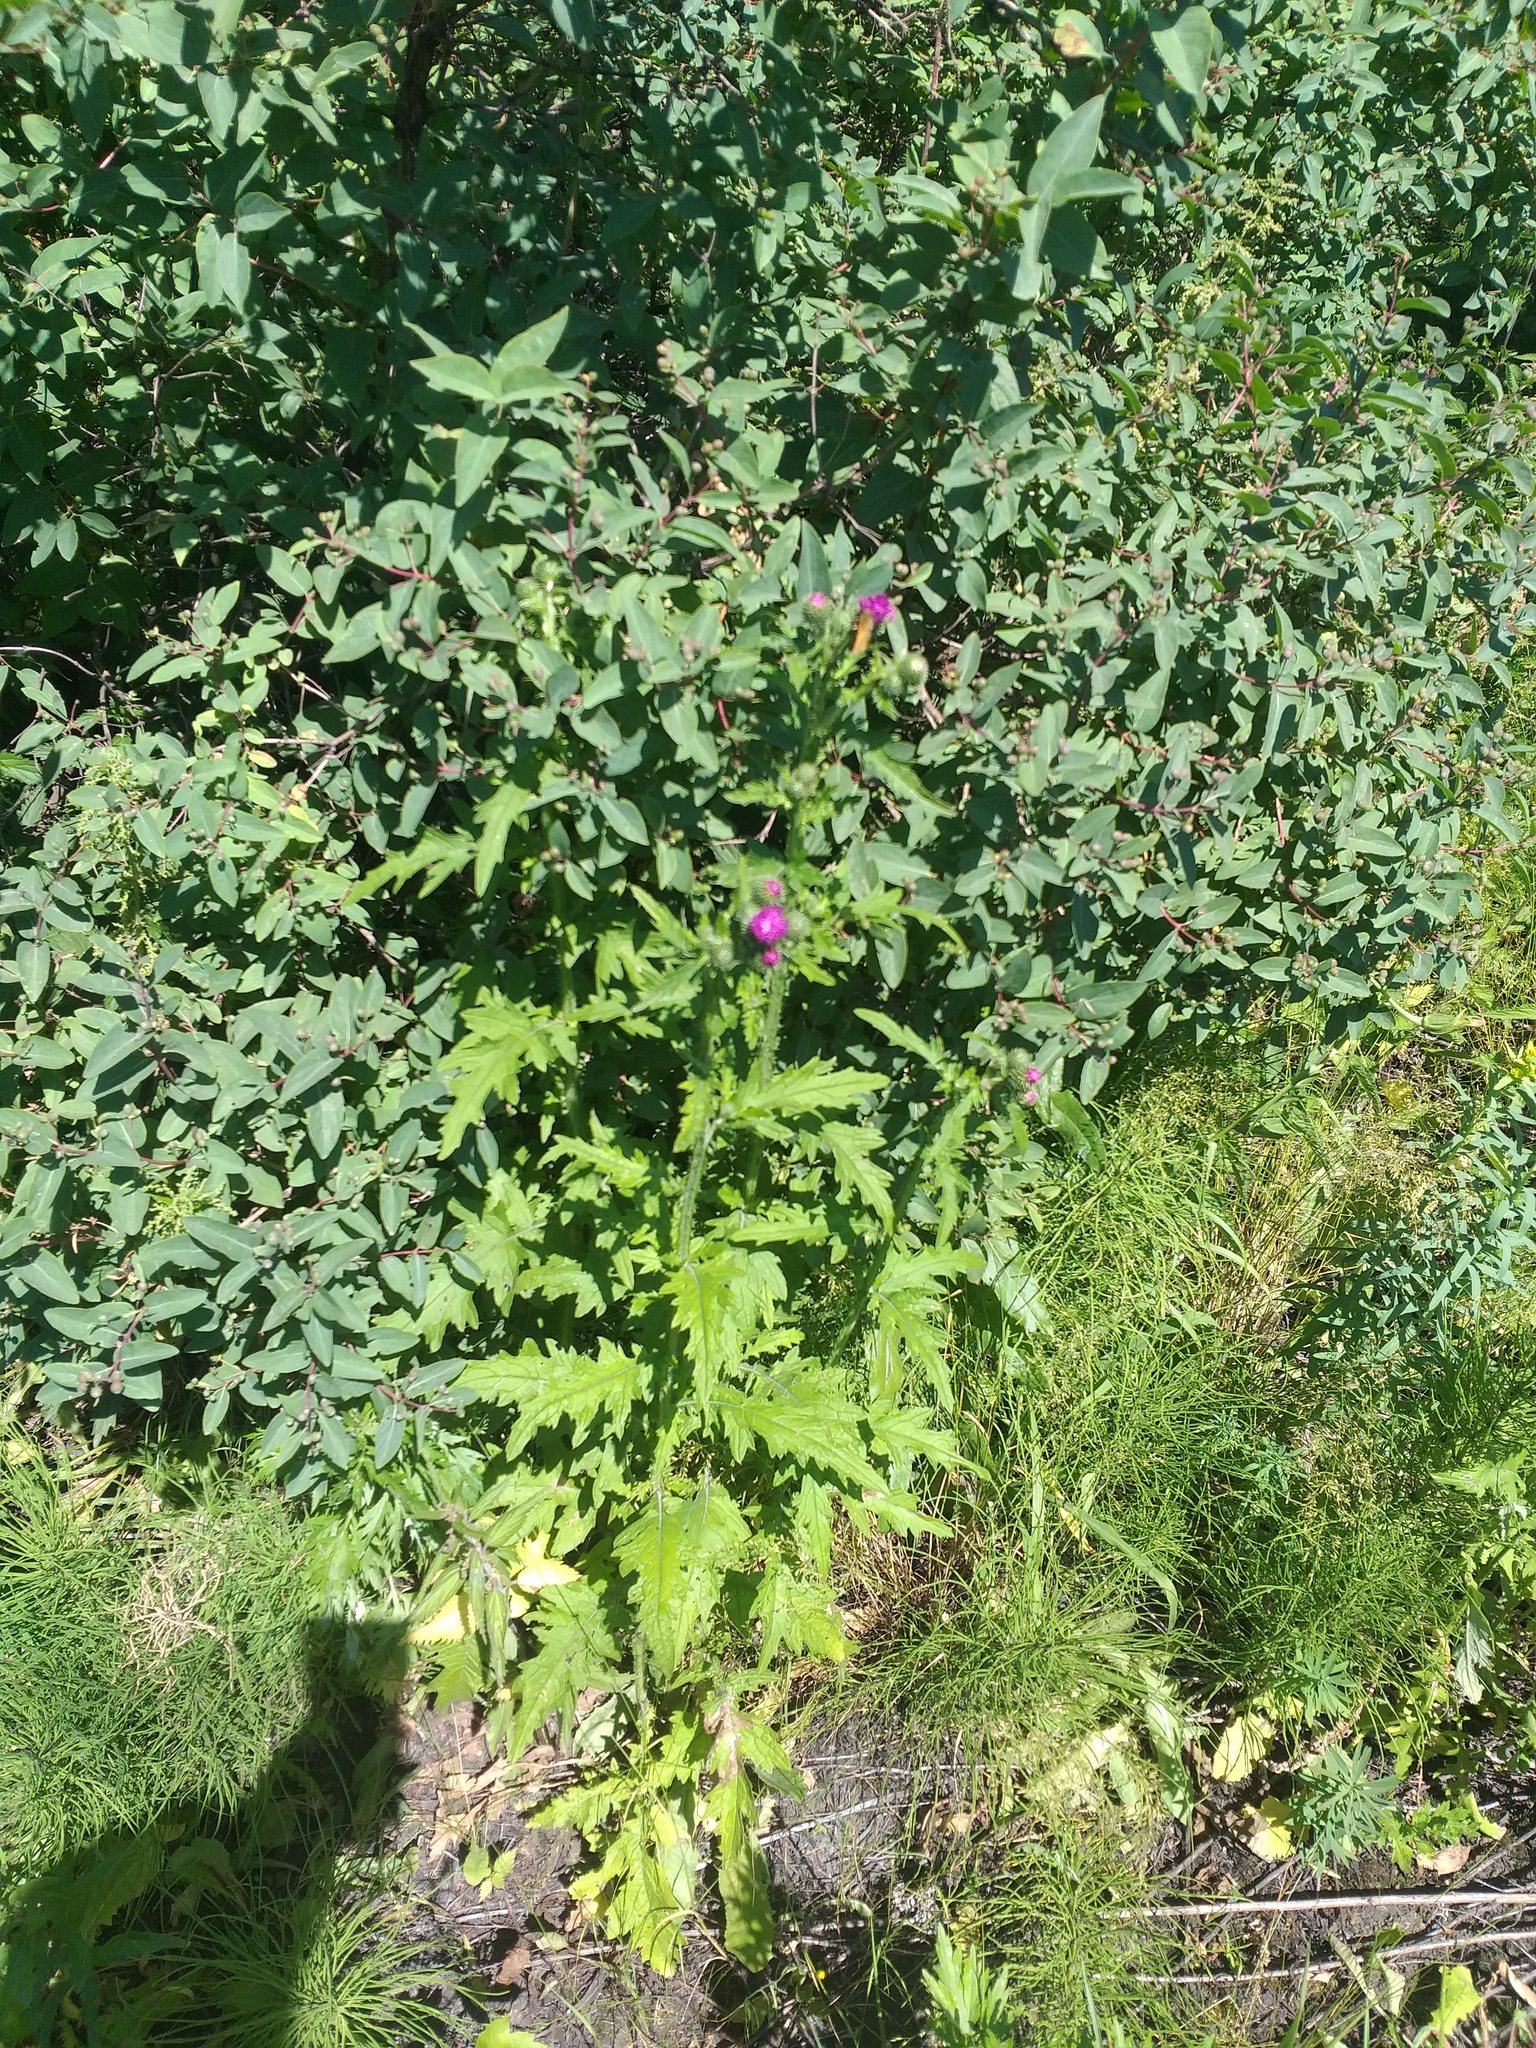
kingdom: Plantae
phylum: Tracheophyta
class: Magnoliopsida
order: Asterales
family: Asteraceae
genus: Carduus
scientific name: Carduus crispus
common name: Welted thistle
